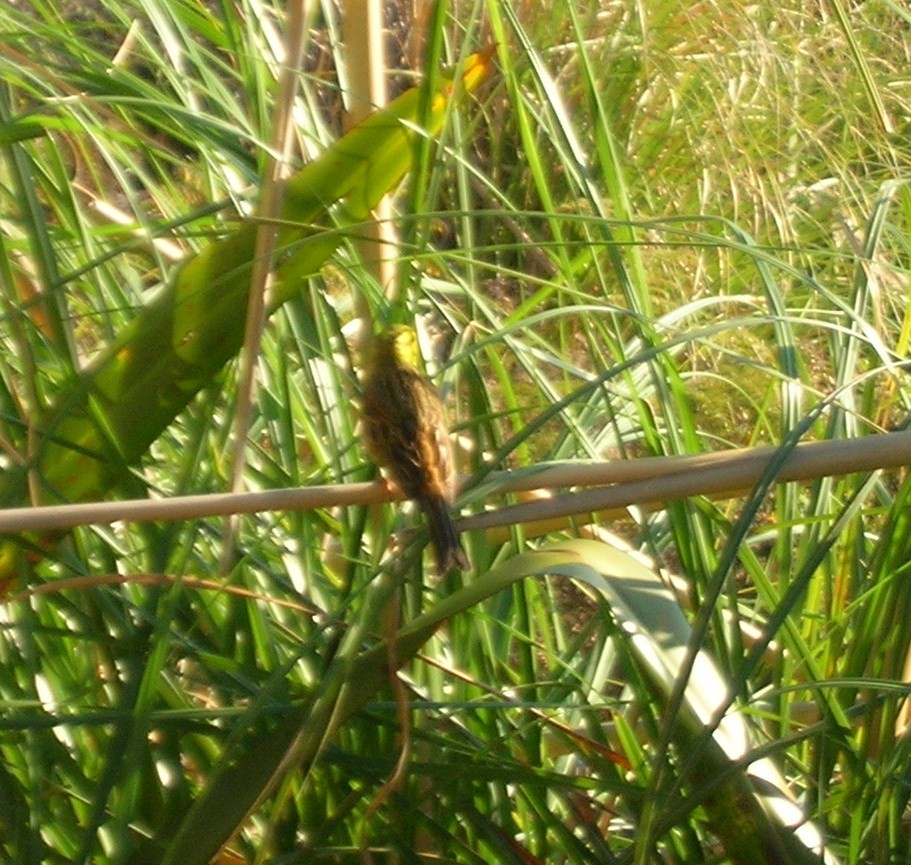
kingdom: Animalia
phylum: Chordata
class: Aves
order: Passeriformes
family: Emberizidae
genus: Emberiza
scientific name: Emberiza citrinella
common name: Yellowhammer
